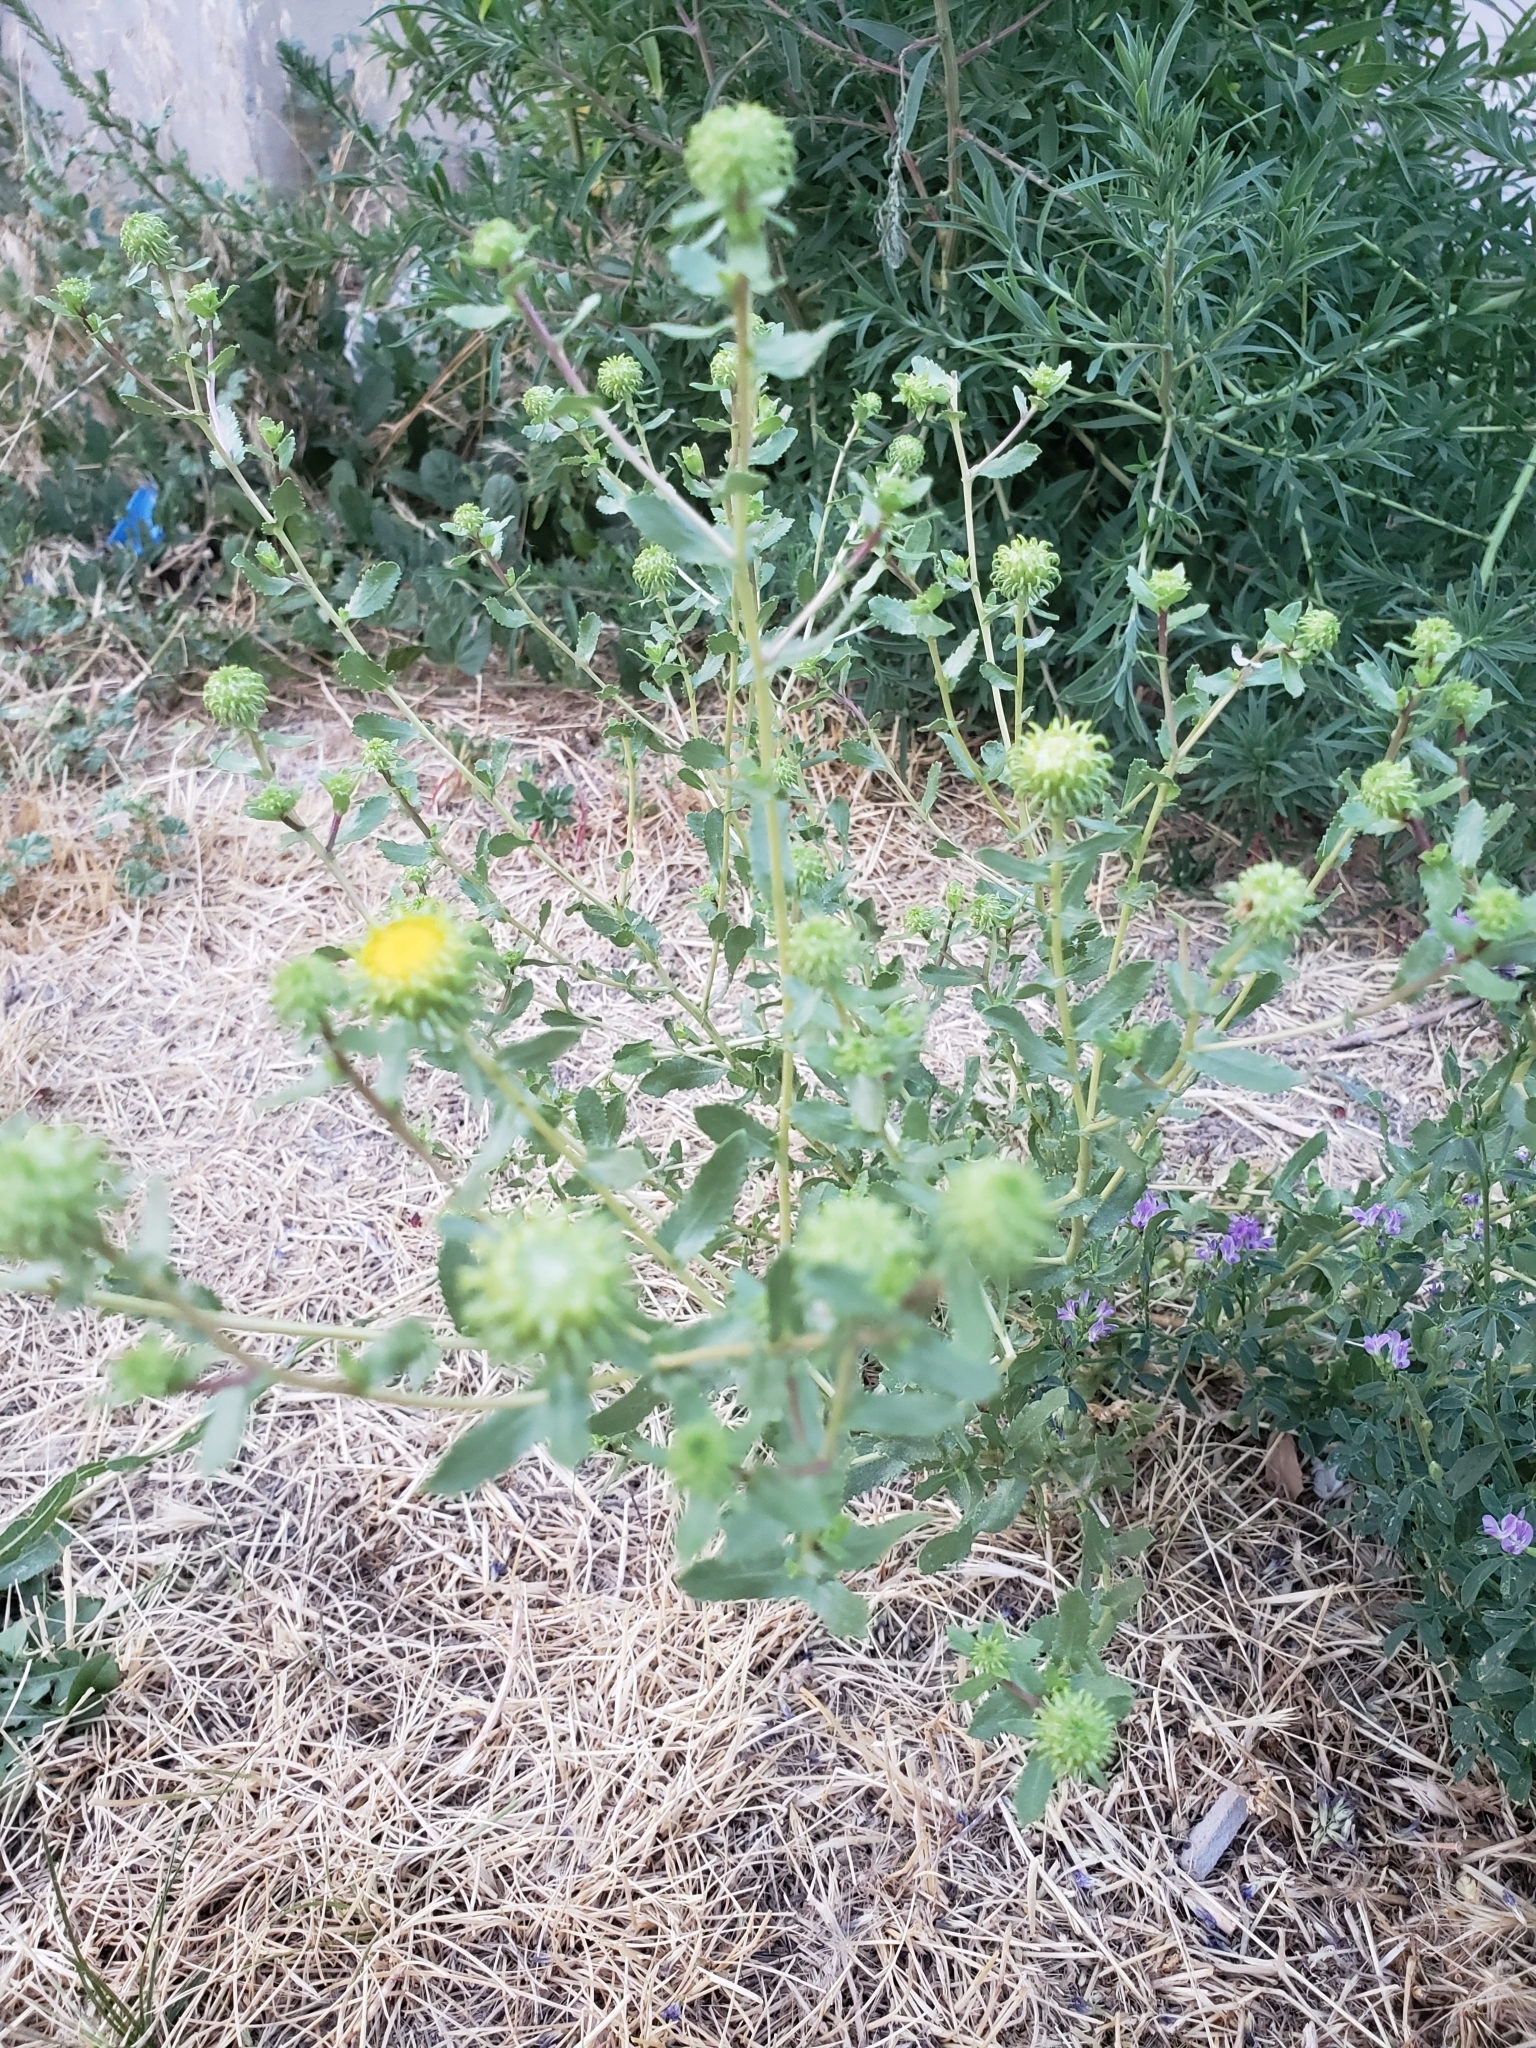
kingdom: Plantae
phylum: Tracheophyta
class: Magnoliopsida
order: Asterales
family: Asteraceae
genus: Grindelia
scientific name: Grindelia squarrosa
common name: Curly-cup gumweed
